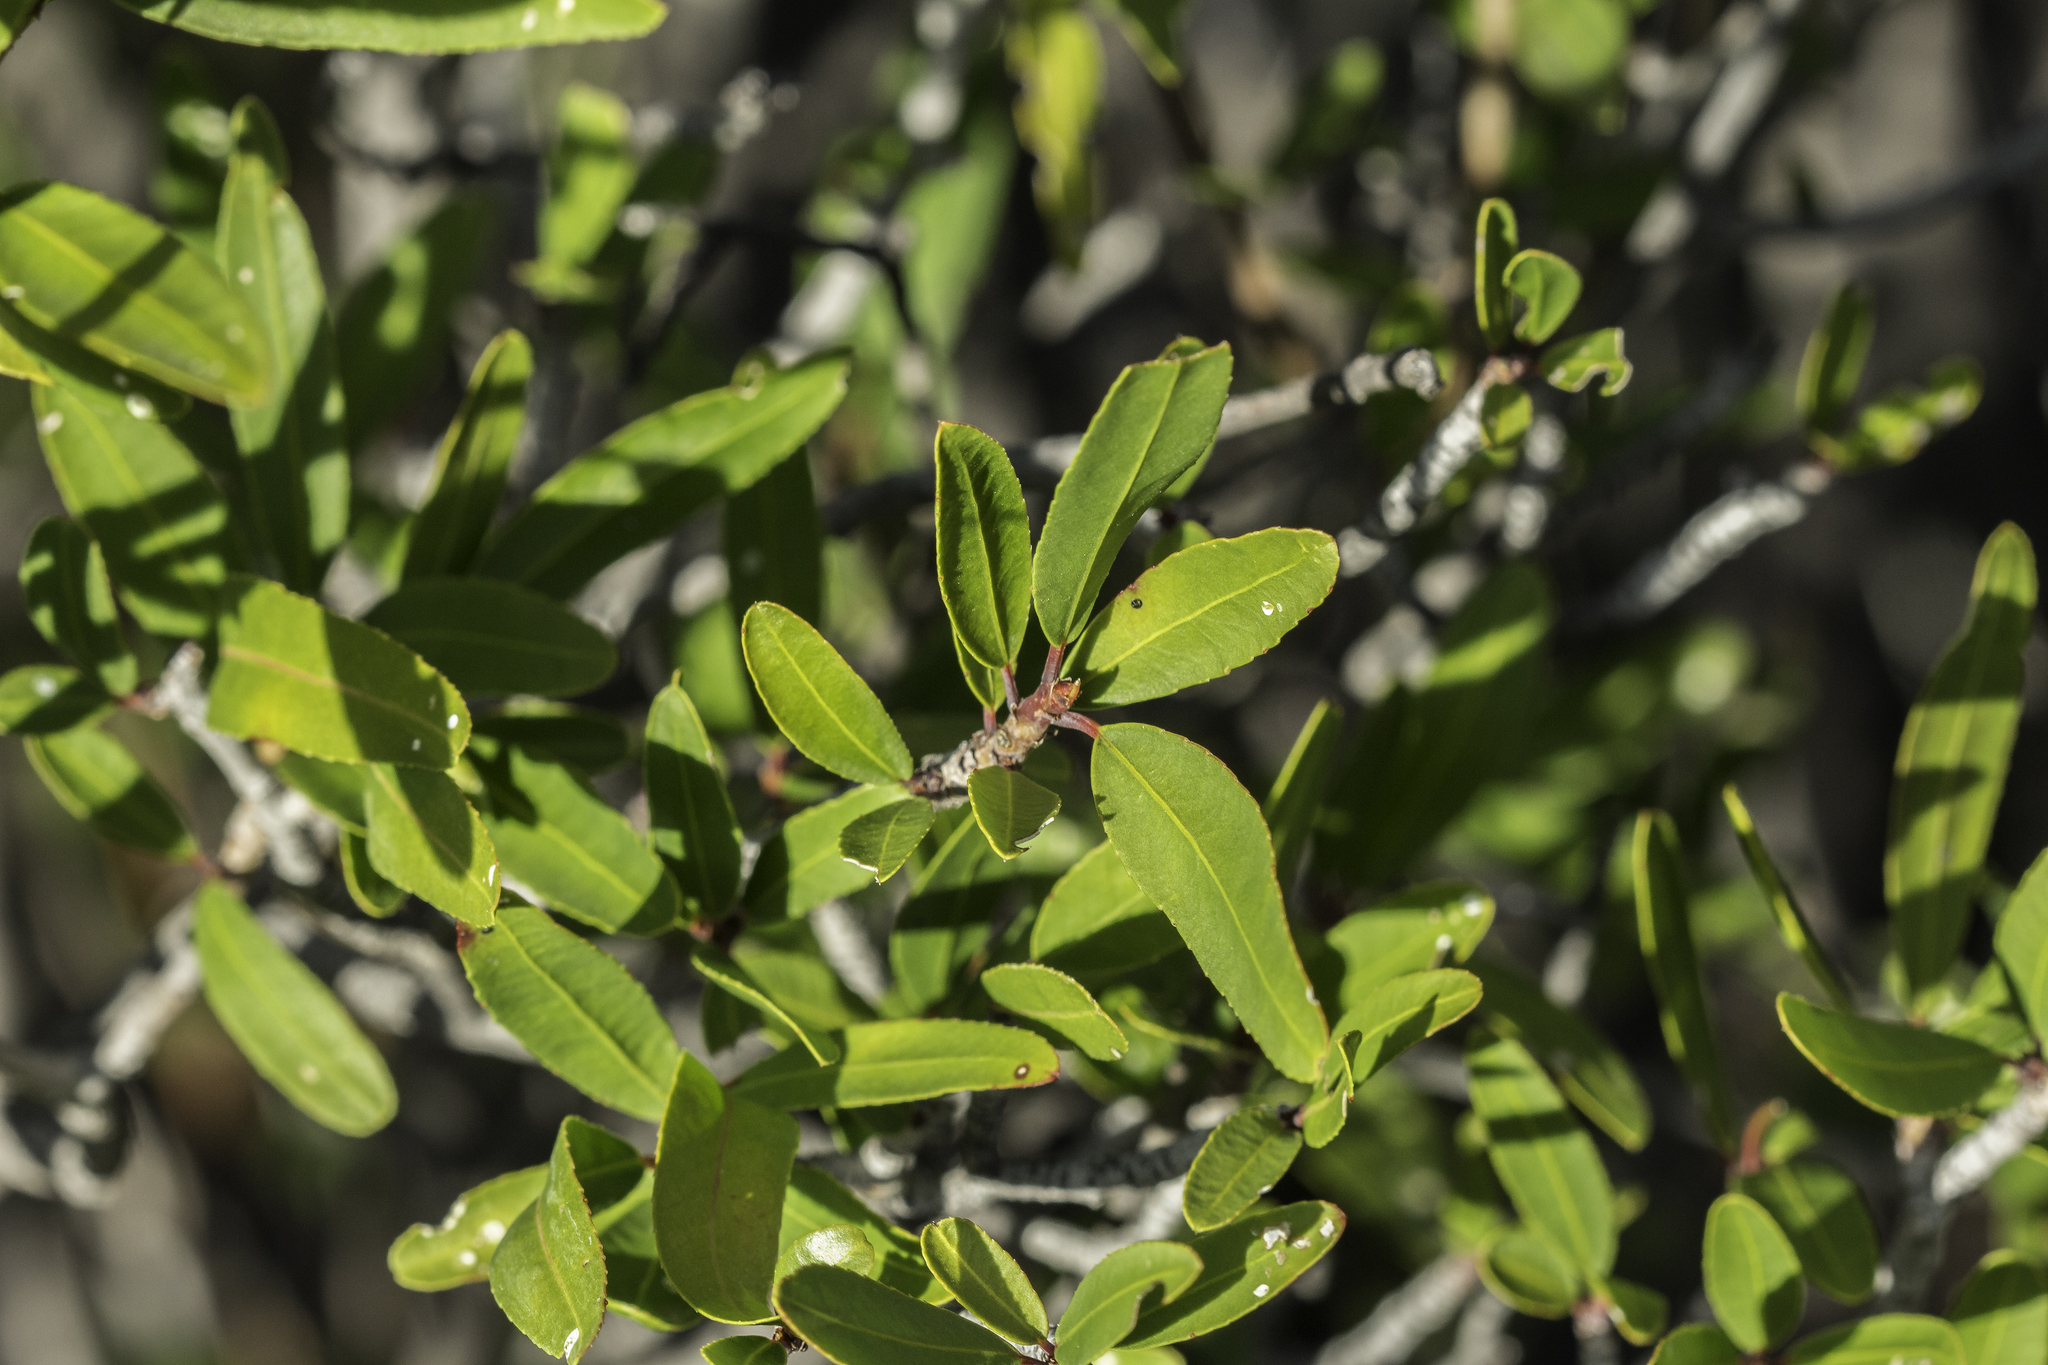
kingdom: Plantae
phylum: Tracheophyta
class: Magnoliopsida
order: Malpighiales
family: Euphorbiaceae
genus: Pleradenophora
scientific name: Pleradenophora bilocularis
